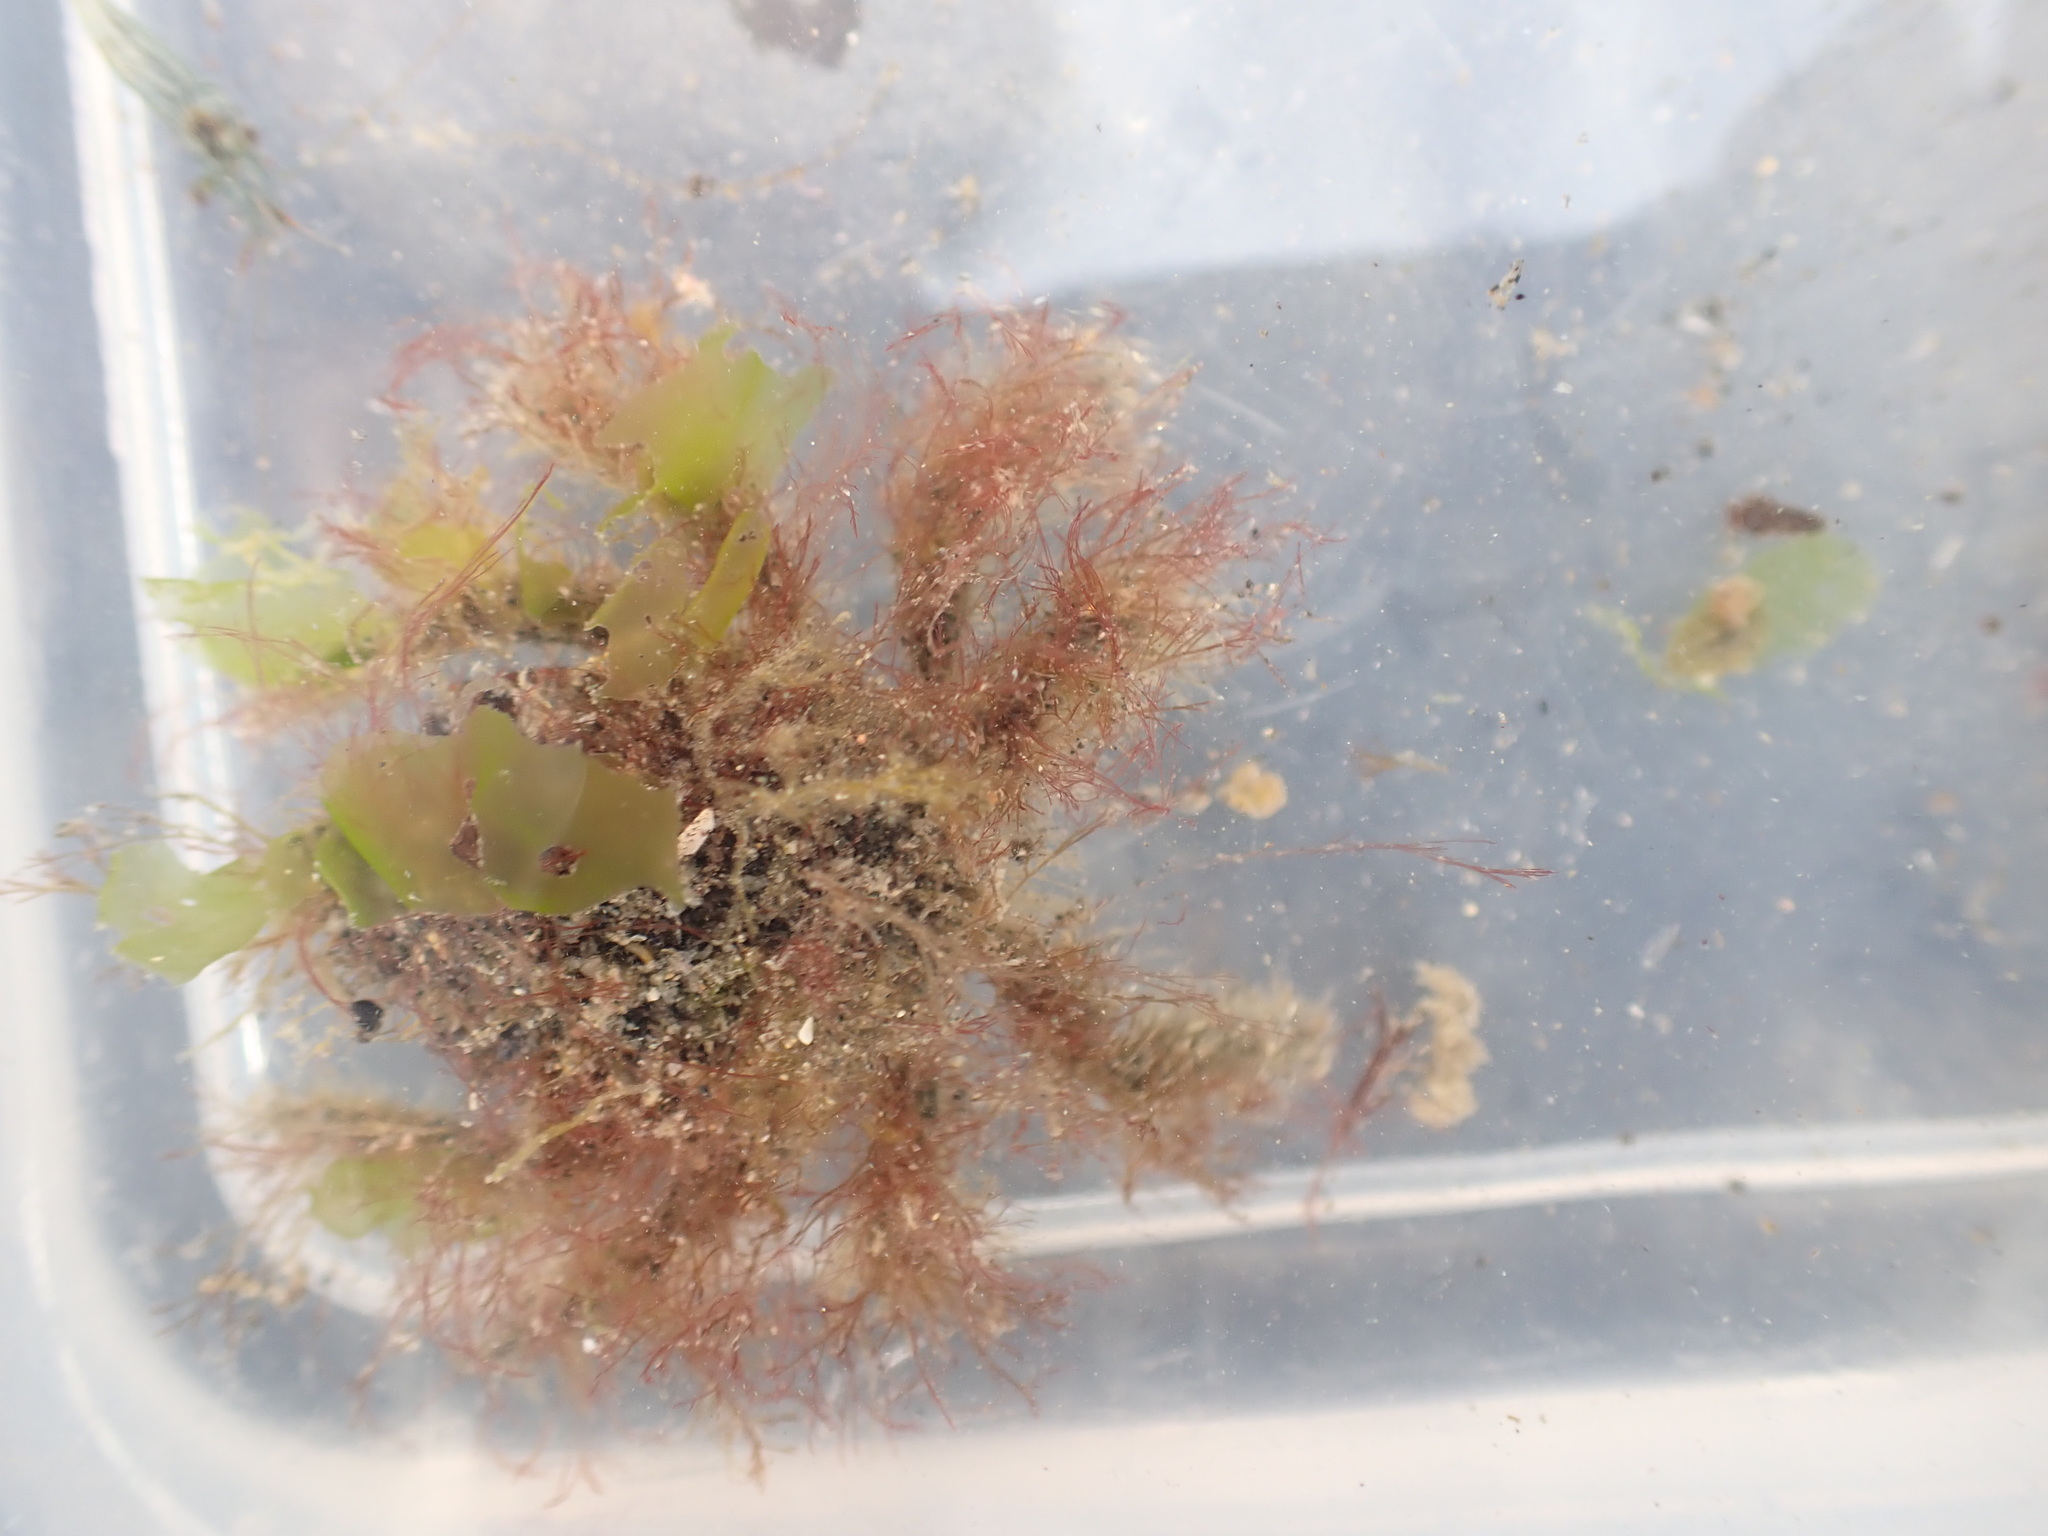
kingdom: Animalia
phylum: Arthropoda
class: Malacostraca
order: Decapoda
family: Majidae
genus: Notomithrax
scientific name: Notomithrax ursus
